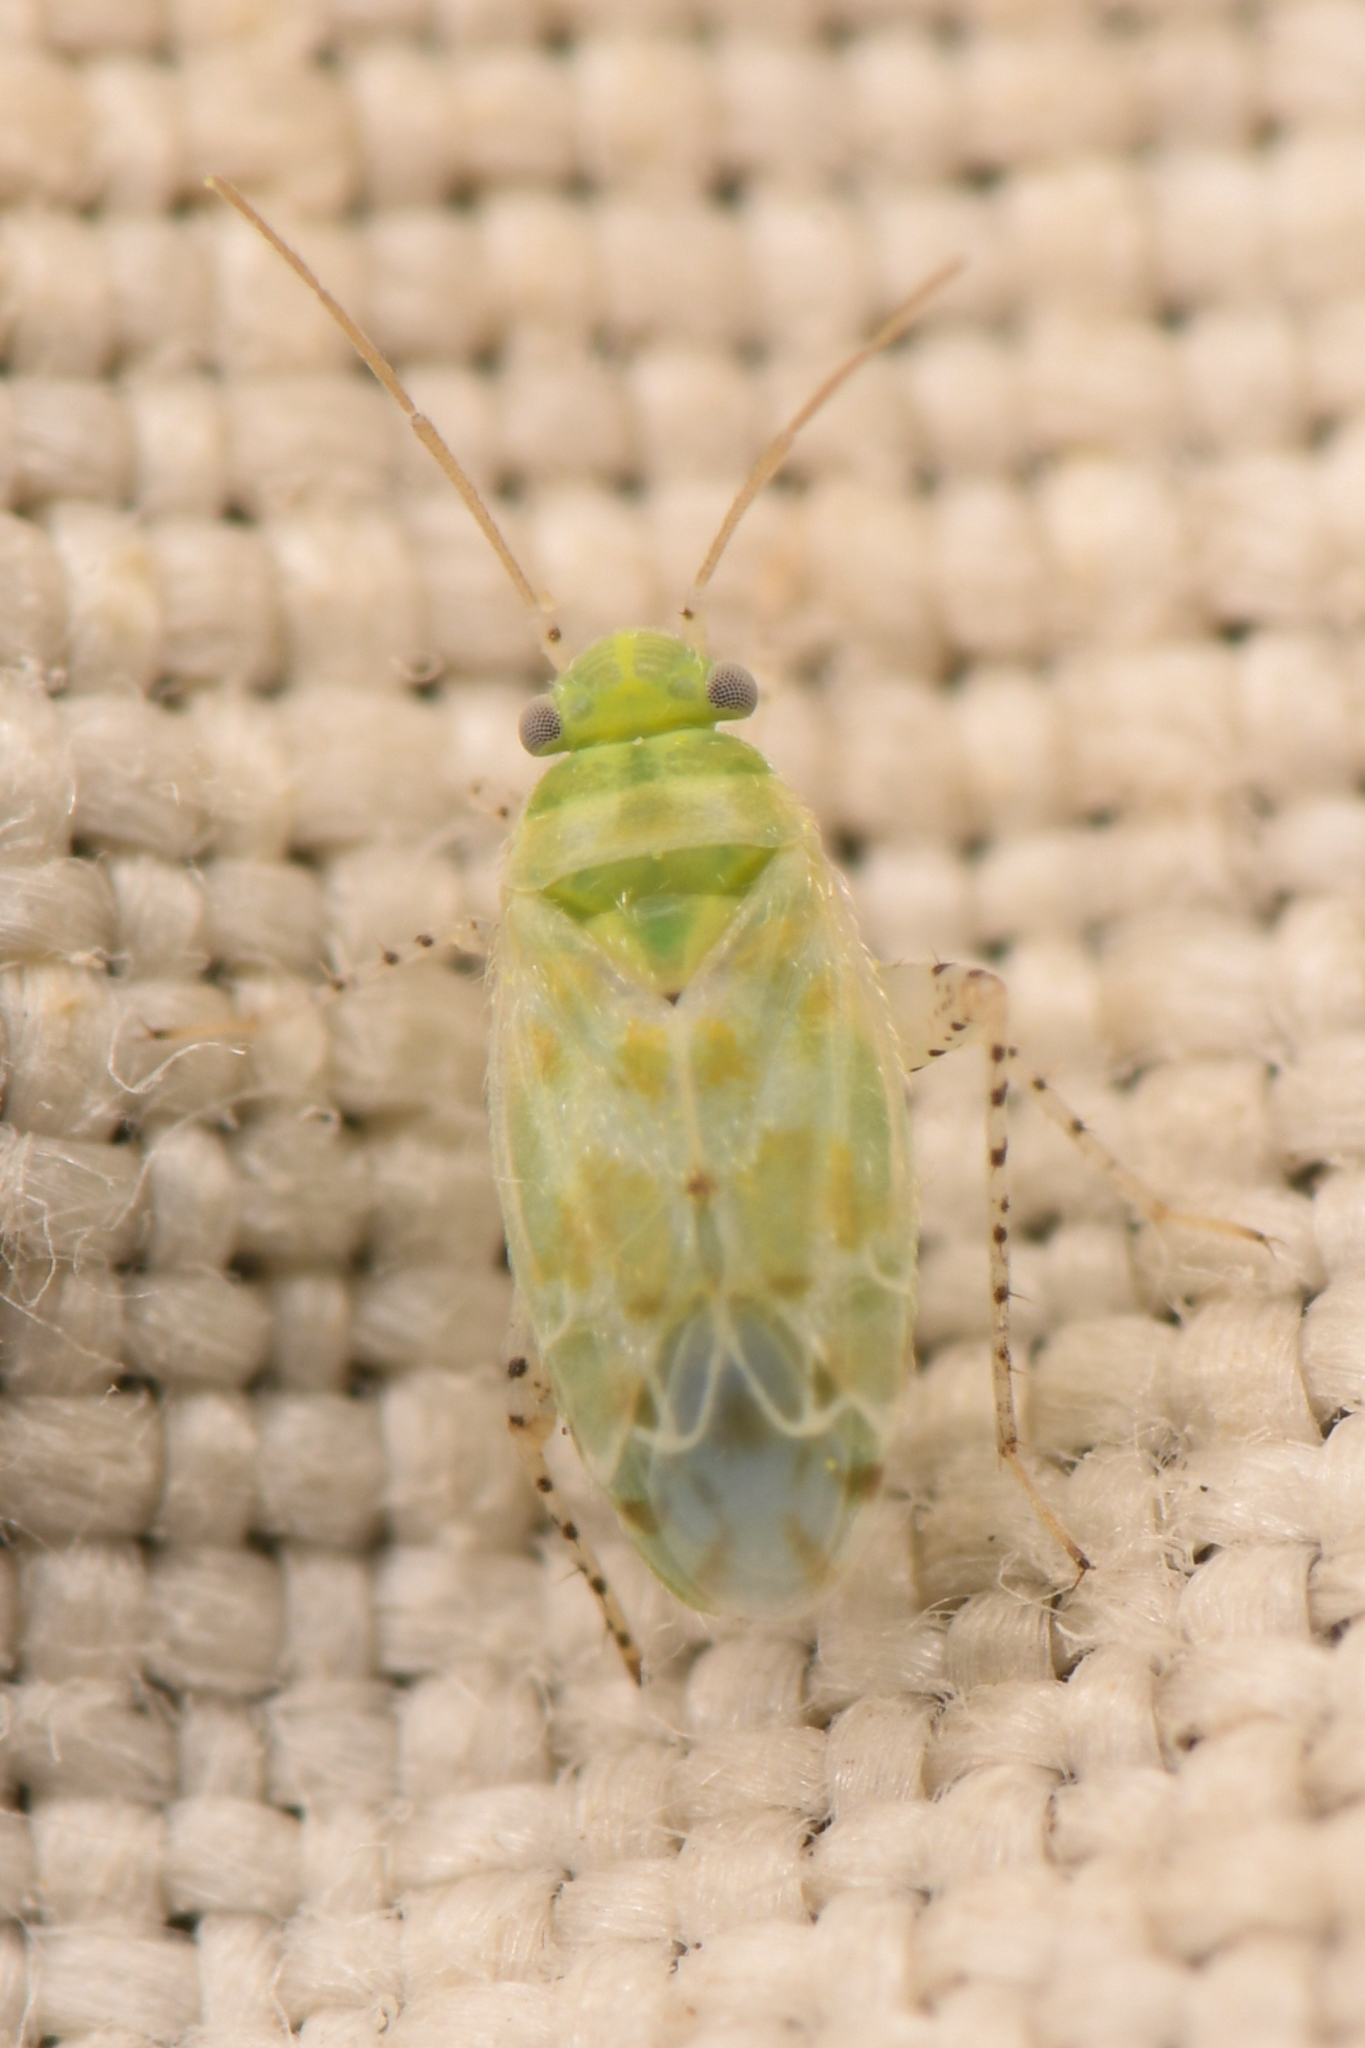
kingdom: Animalia
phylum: Arthropoda
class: Insecta
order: Hemiptera
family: Miridae
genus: Atomoscelis
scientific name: Atomoscelis onustus
